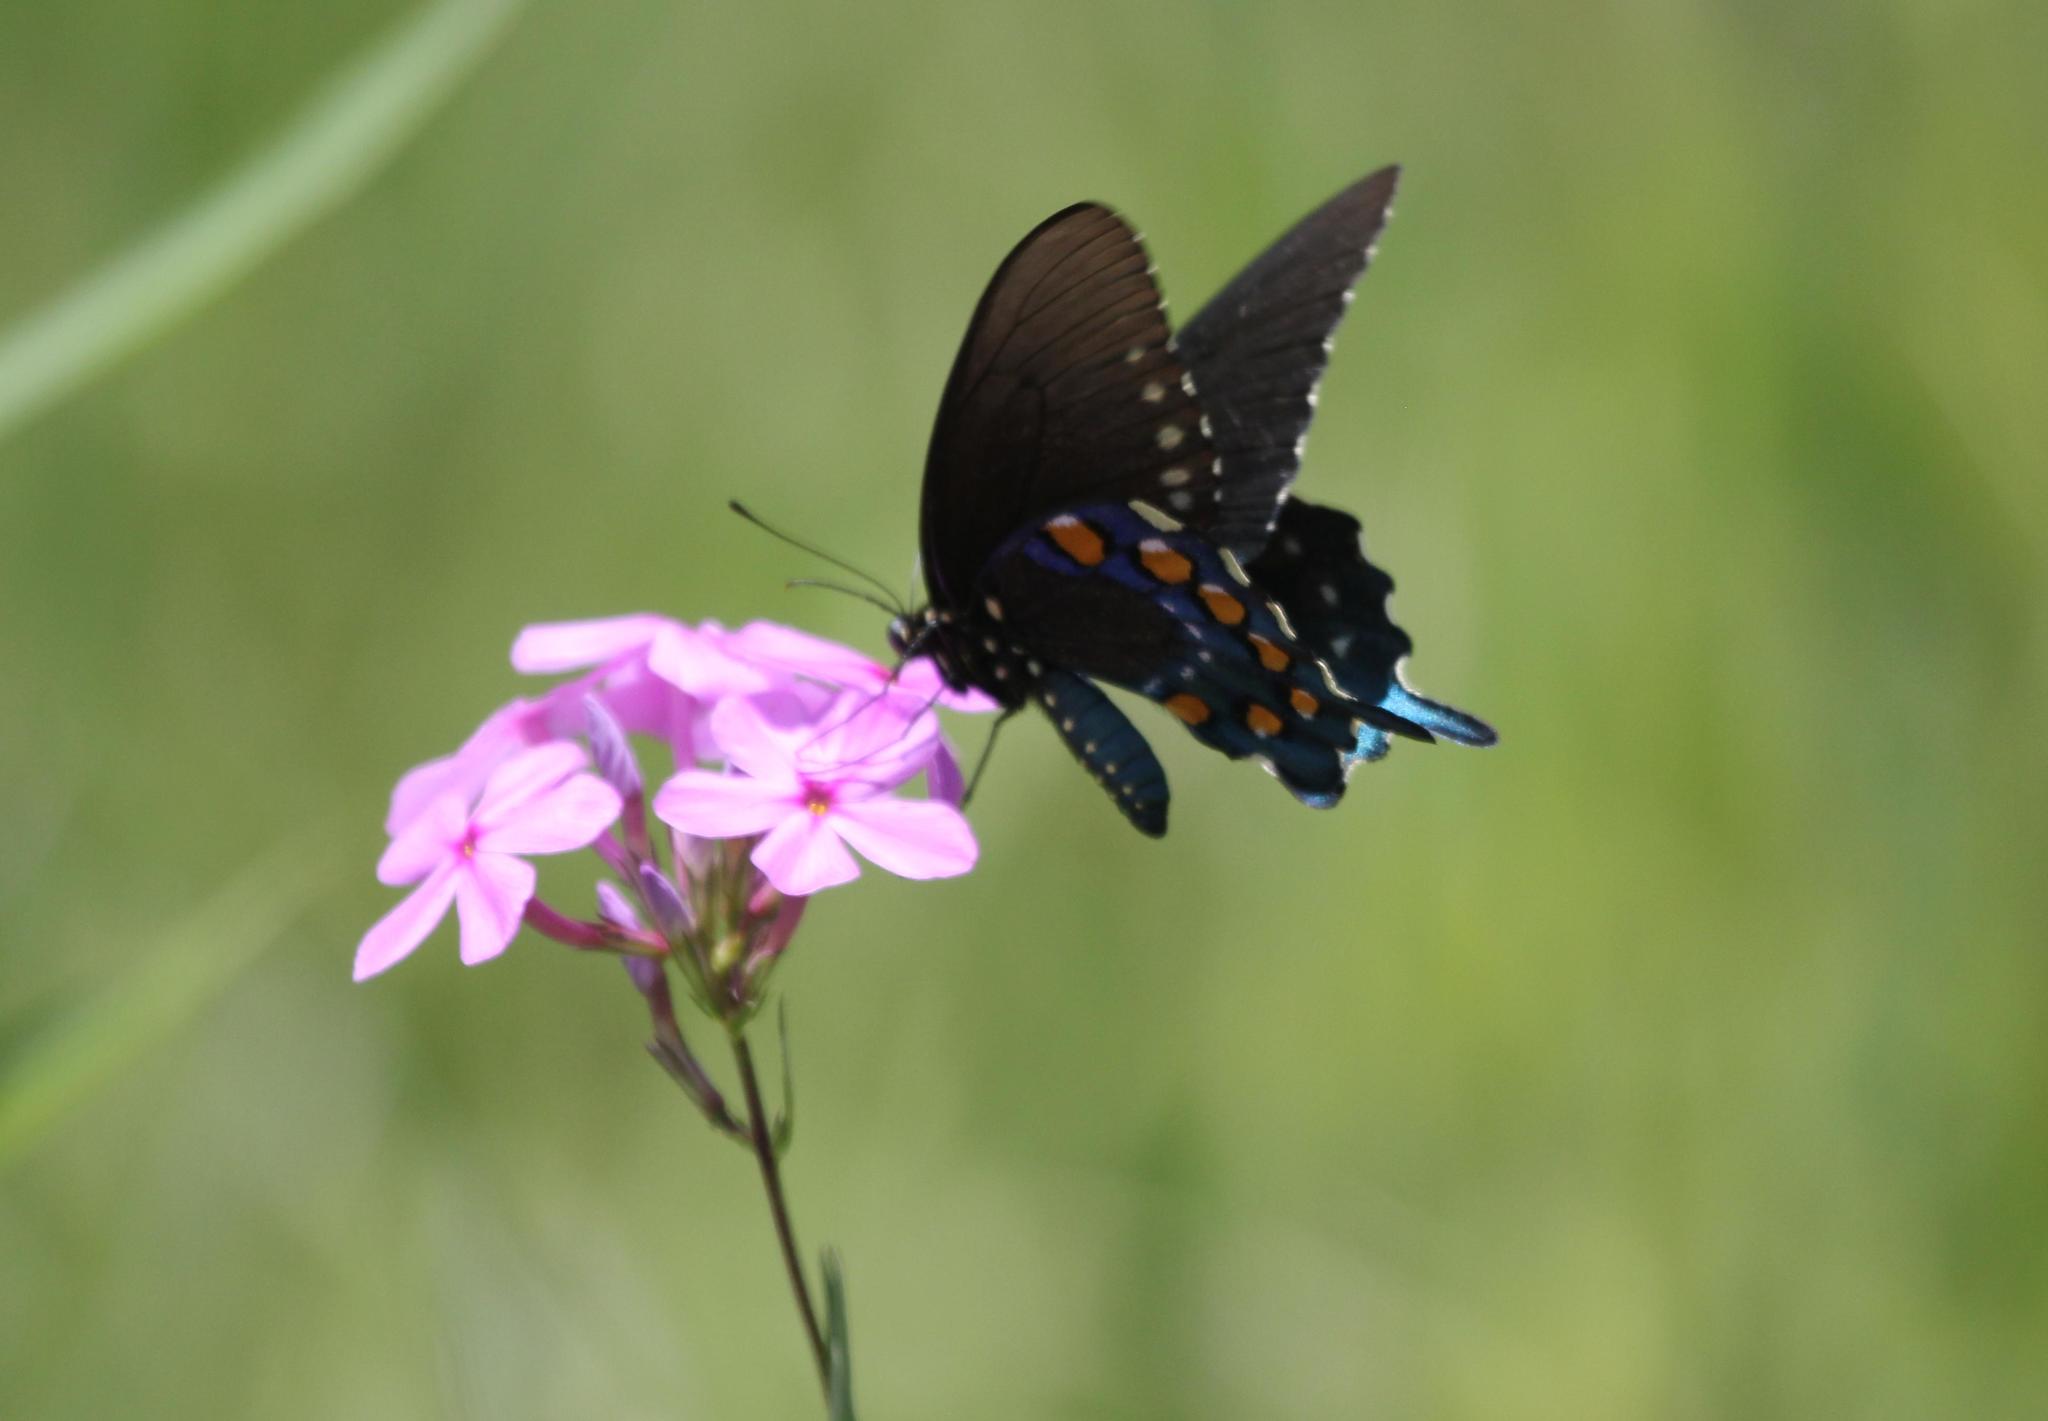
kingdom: Animalia
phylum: Arthropoda
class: Insecta
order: Lepidoptera
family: Papilionidae
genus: Battus
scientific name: Battus philenor
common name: Pipevine swallowtail
